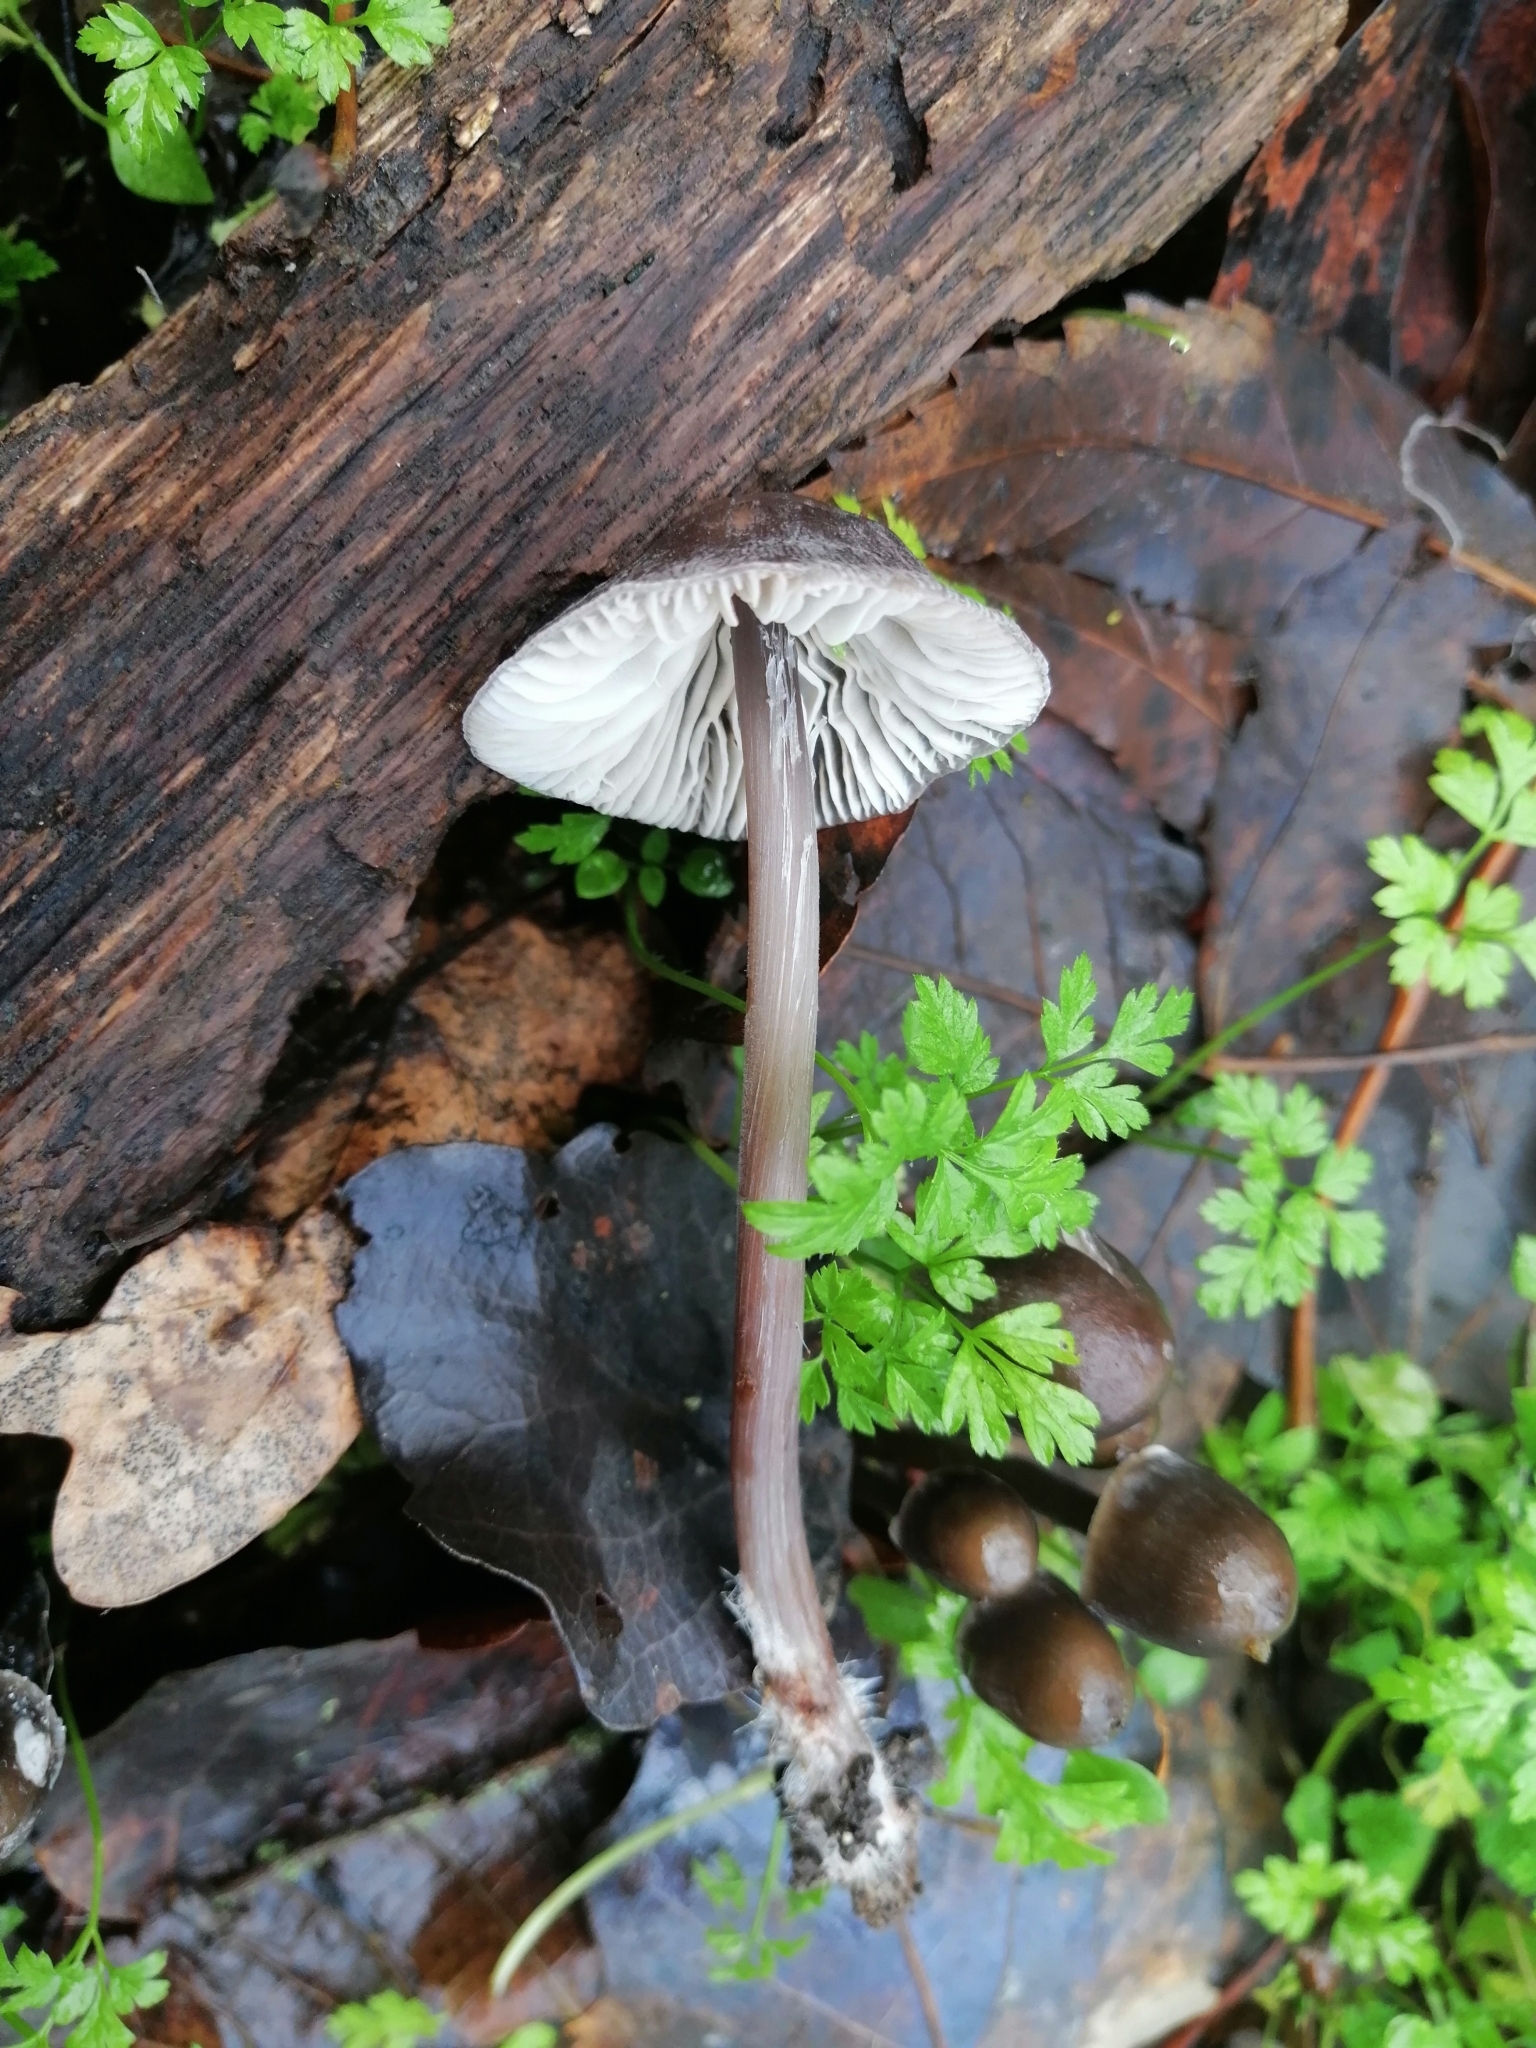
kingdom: Fungi
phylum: Basidiomycota
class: Agaricomycetes
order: Agaricales
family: Mycenaceae
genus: Mycena
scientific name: Mycena polygramma
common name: Grooved bonnet
